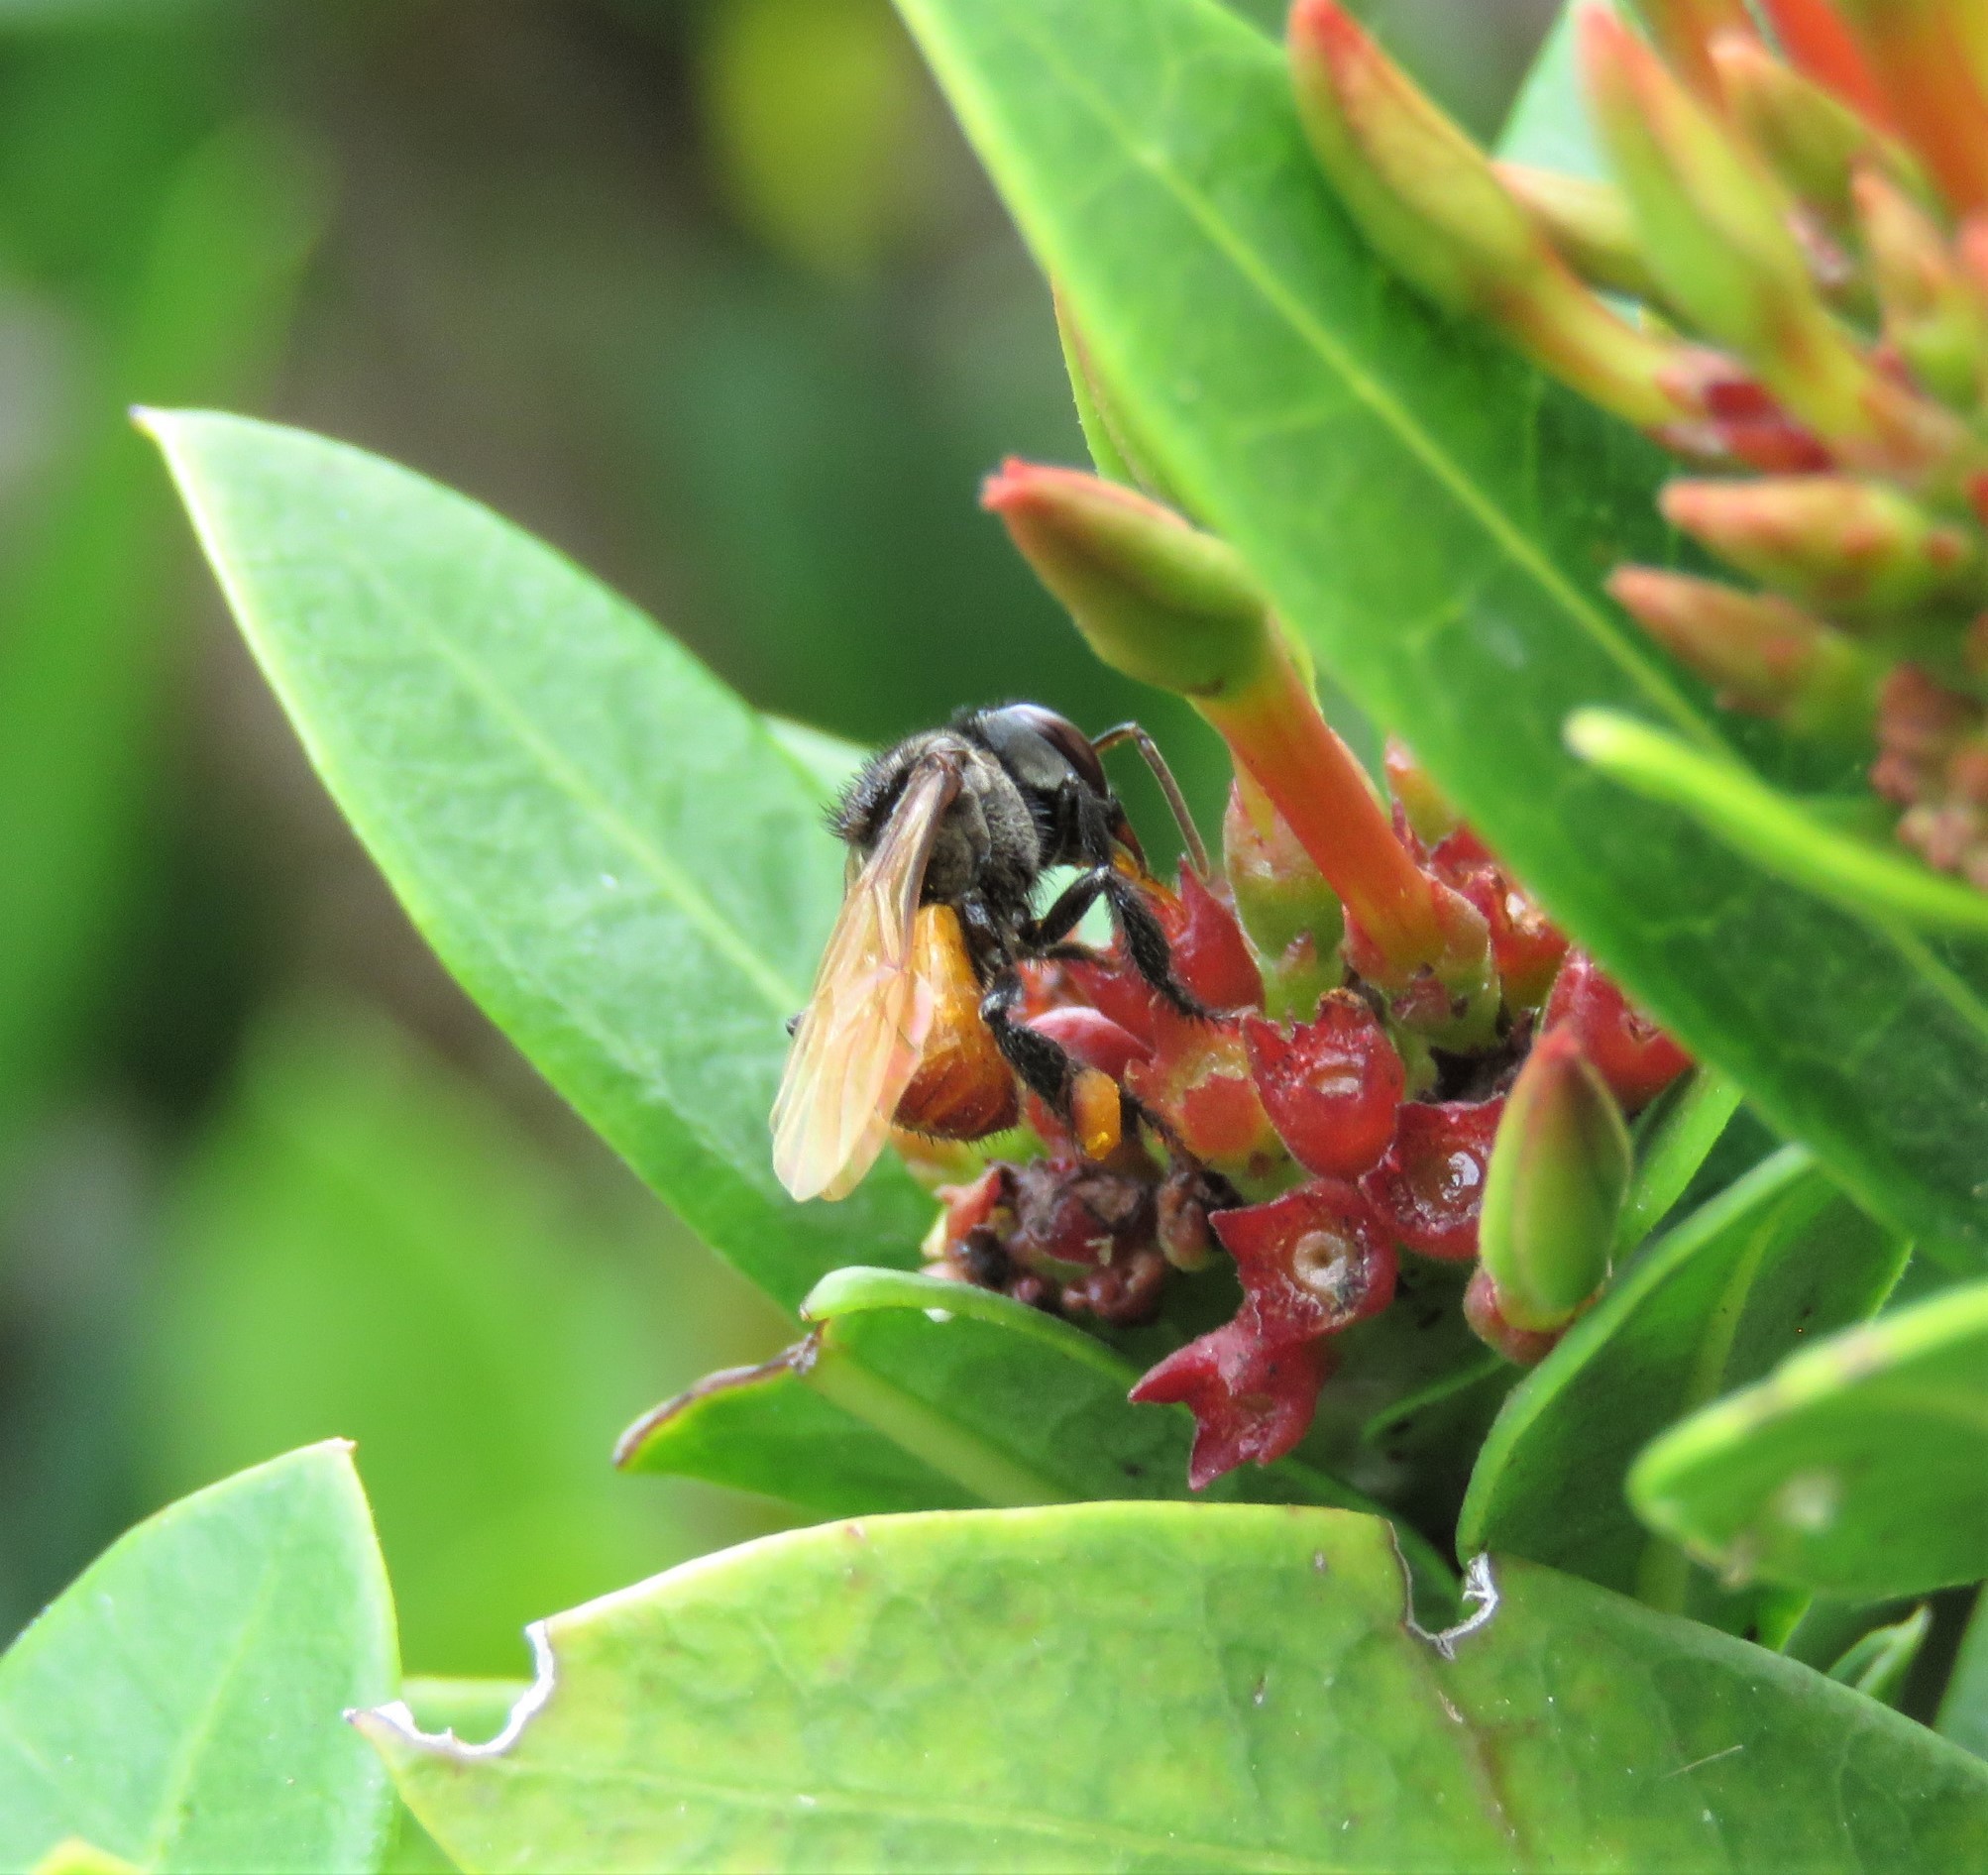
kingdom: Animalia
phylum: Arthropoda
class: Insecta
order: Hymenoptera
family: Apidae
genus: Trigona
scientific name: Trigona fulviventris
